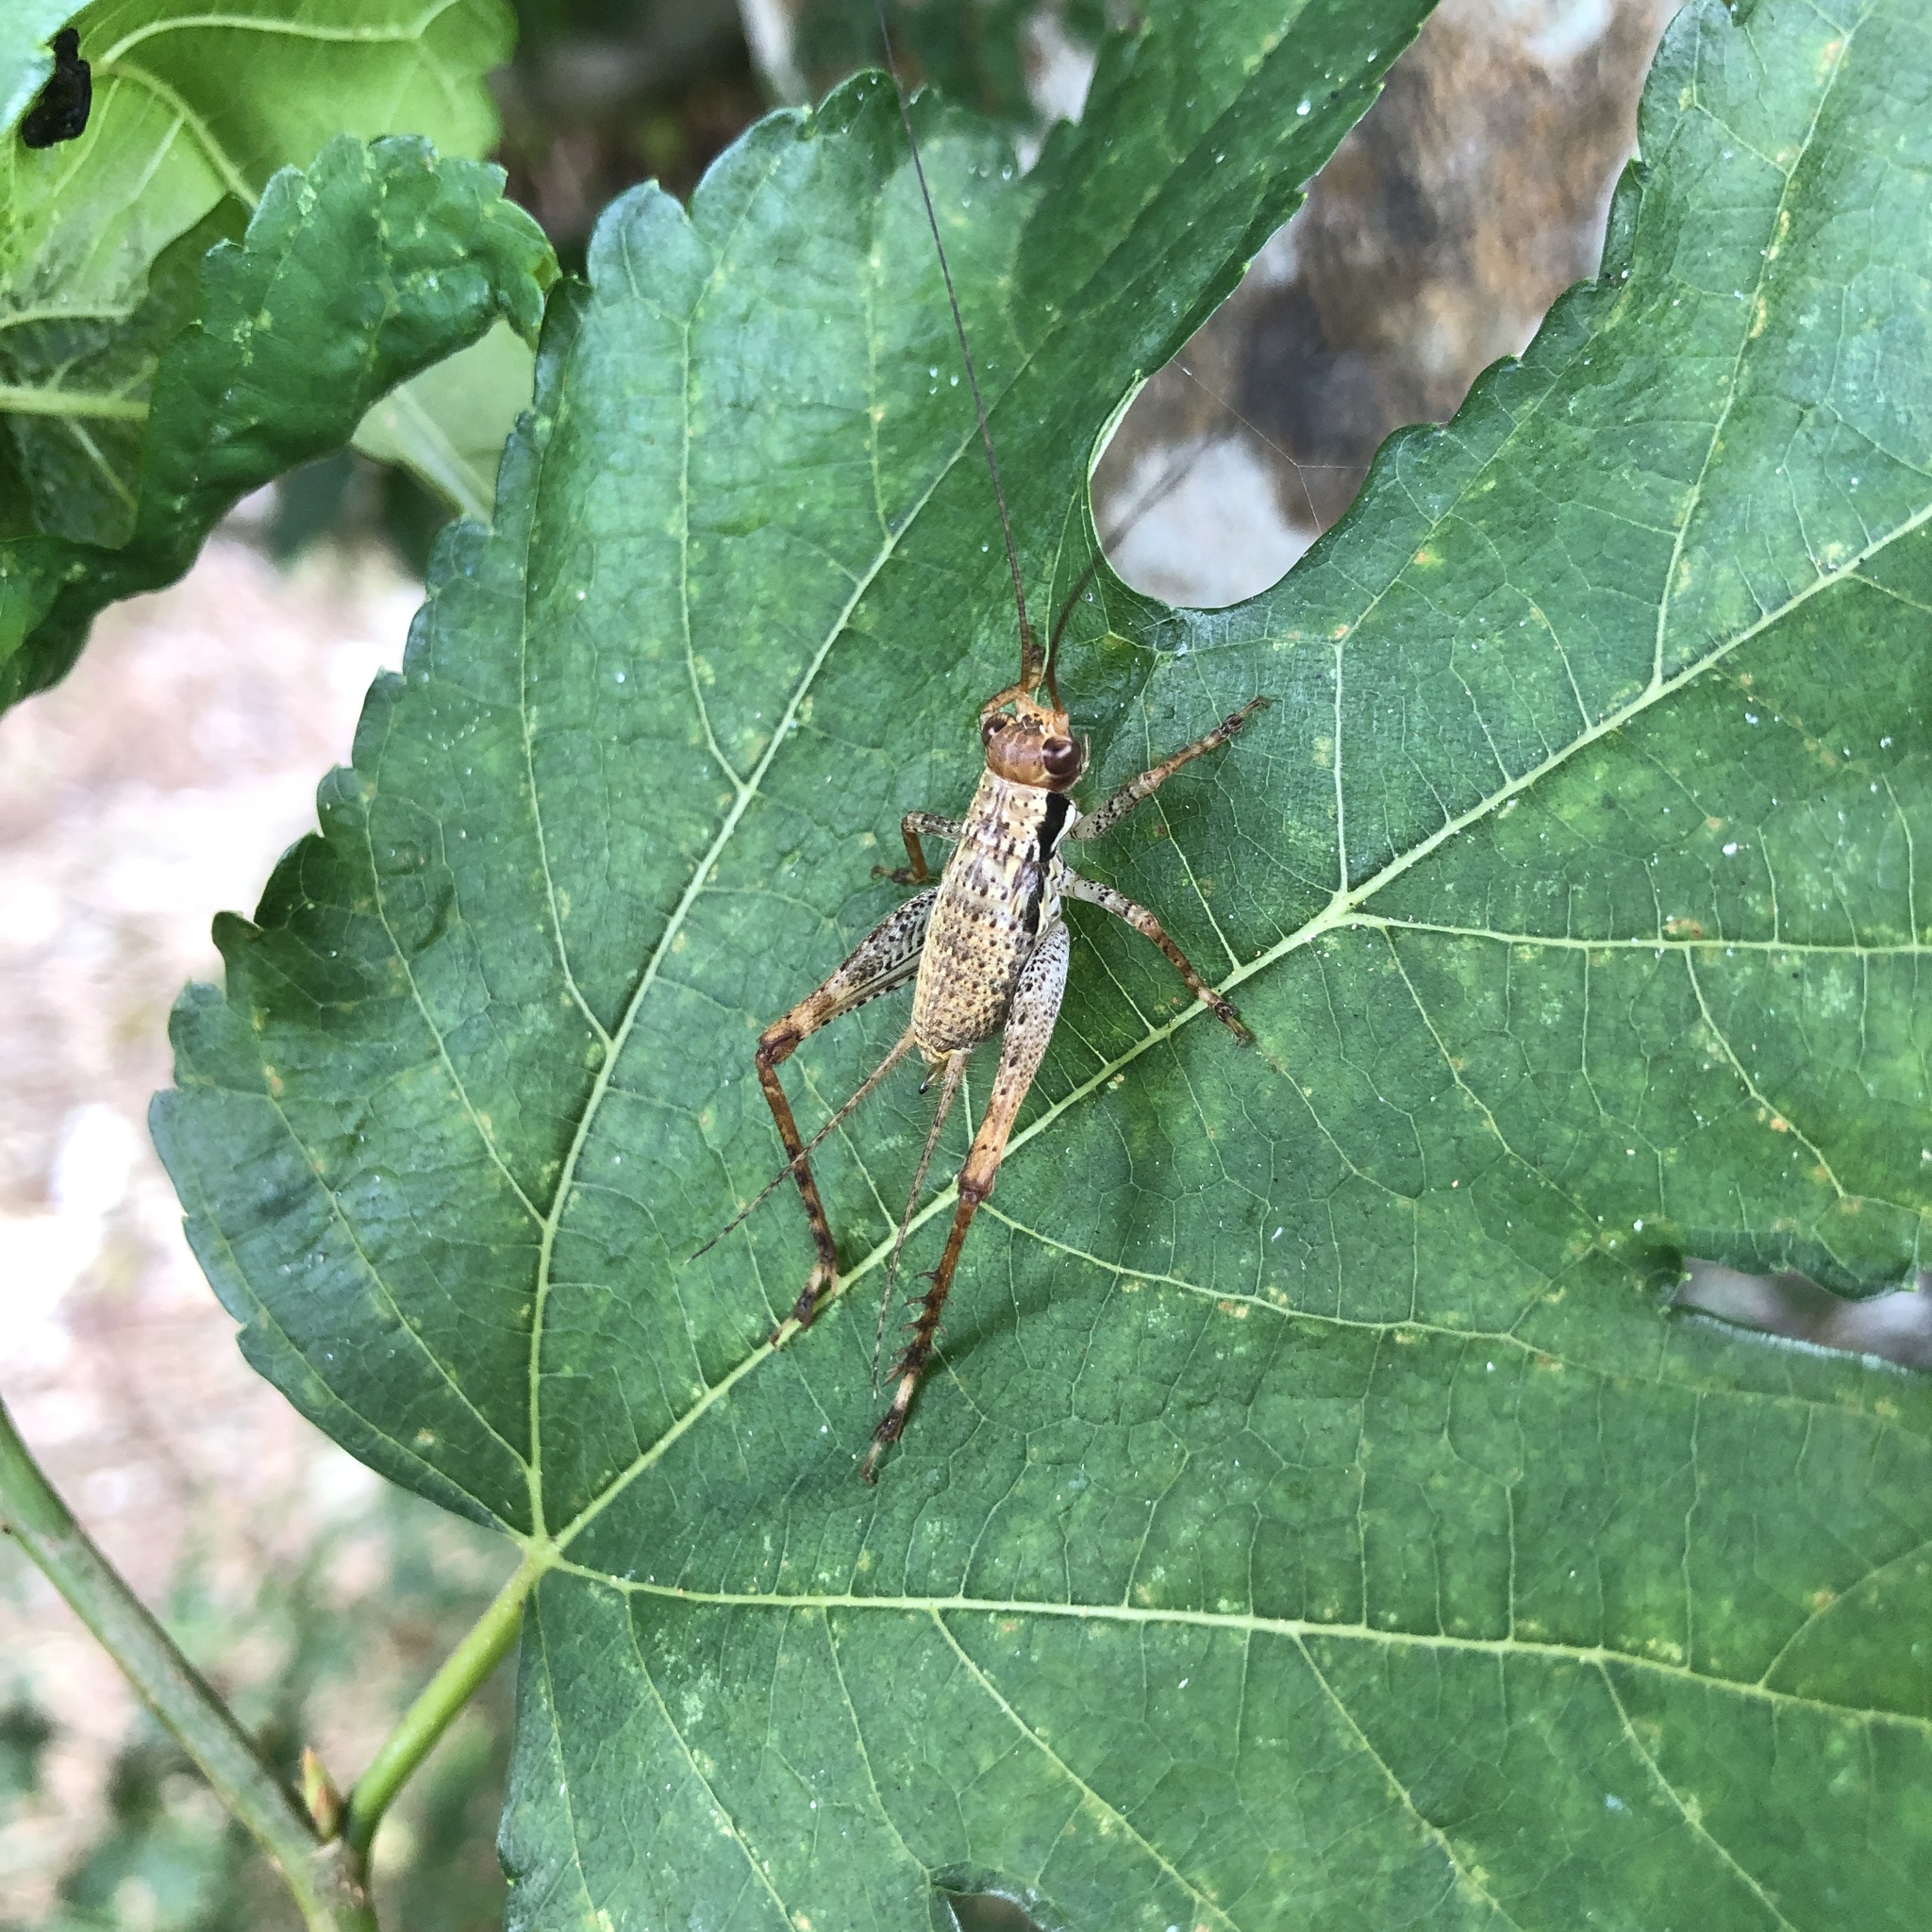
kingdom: Animalia
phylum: Arthropoda
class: Insecta
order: Orthoptera
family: Gryllidae
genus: Cardiodactylus
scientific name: Cardiodactylus guttulus
